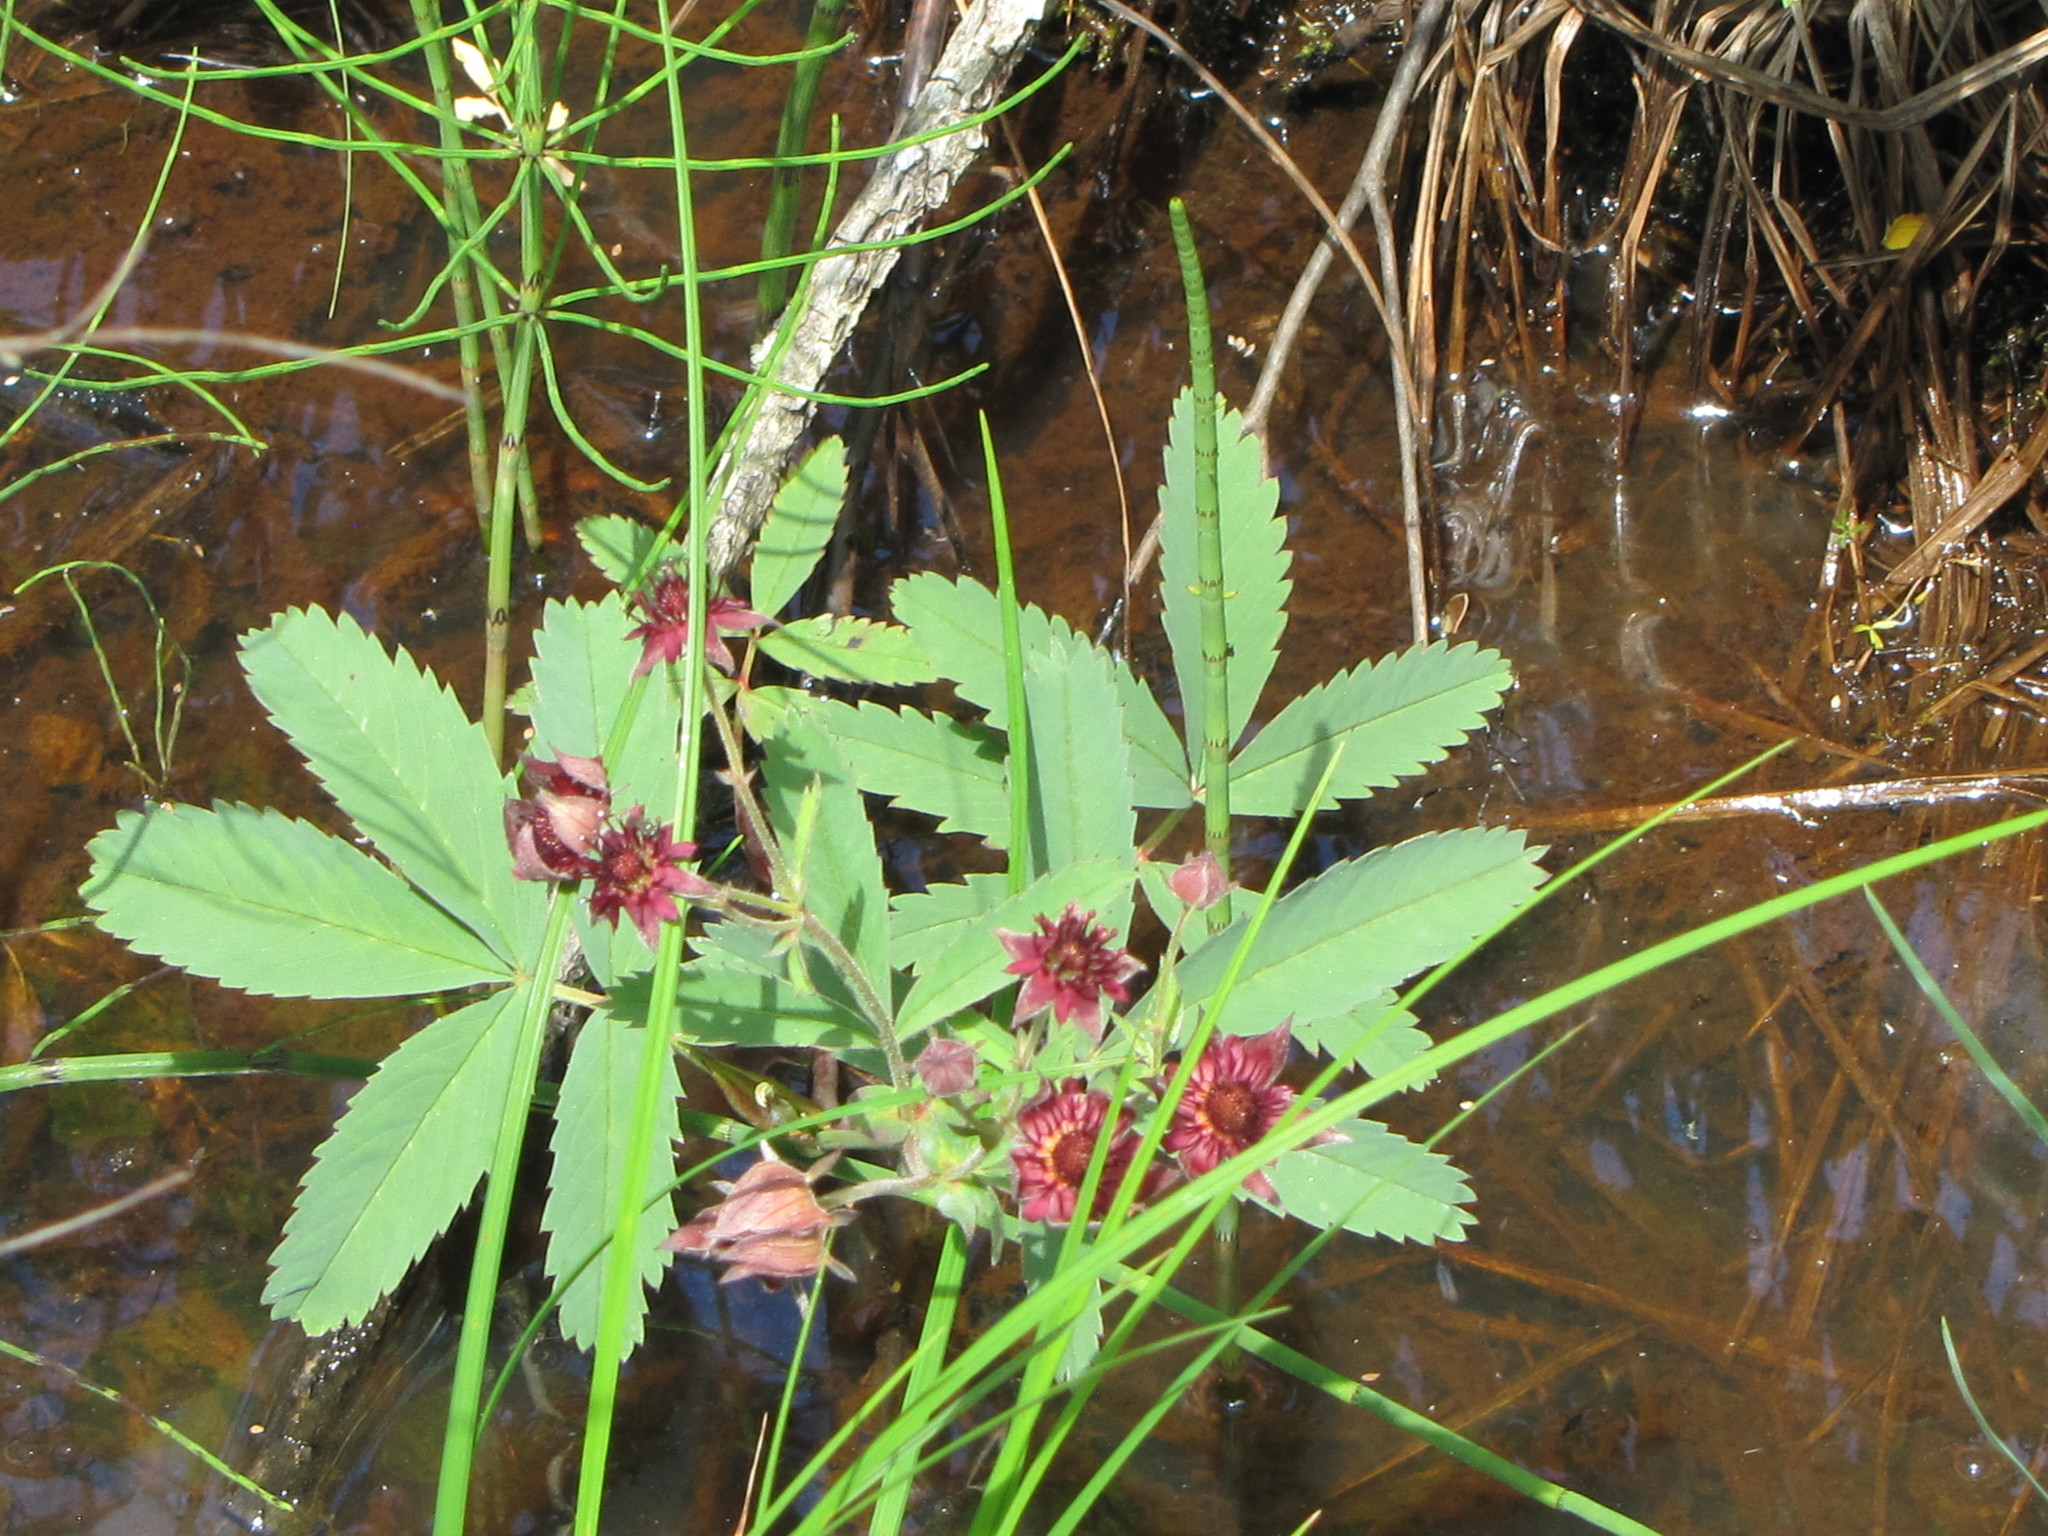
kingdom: Plantae
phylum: Tracheophyta
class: Magnoliopsida
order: Rosales
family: Rosaceae
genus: Comarum
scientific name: Comarum palustre
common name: Marsh cinquefoil
